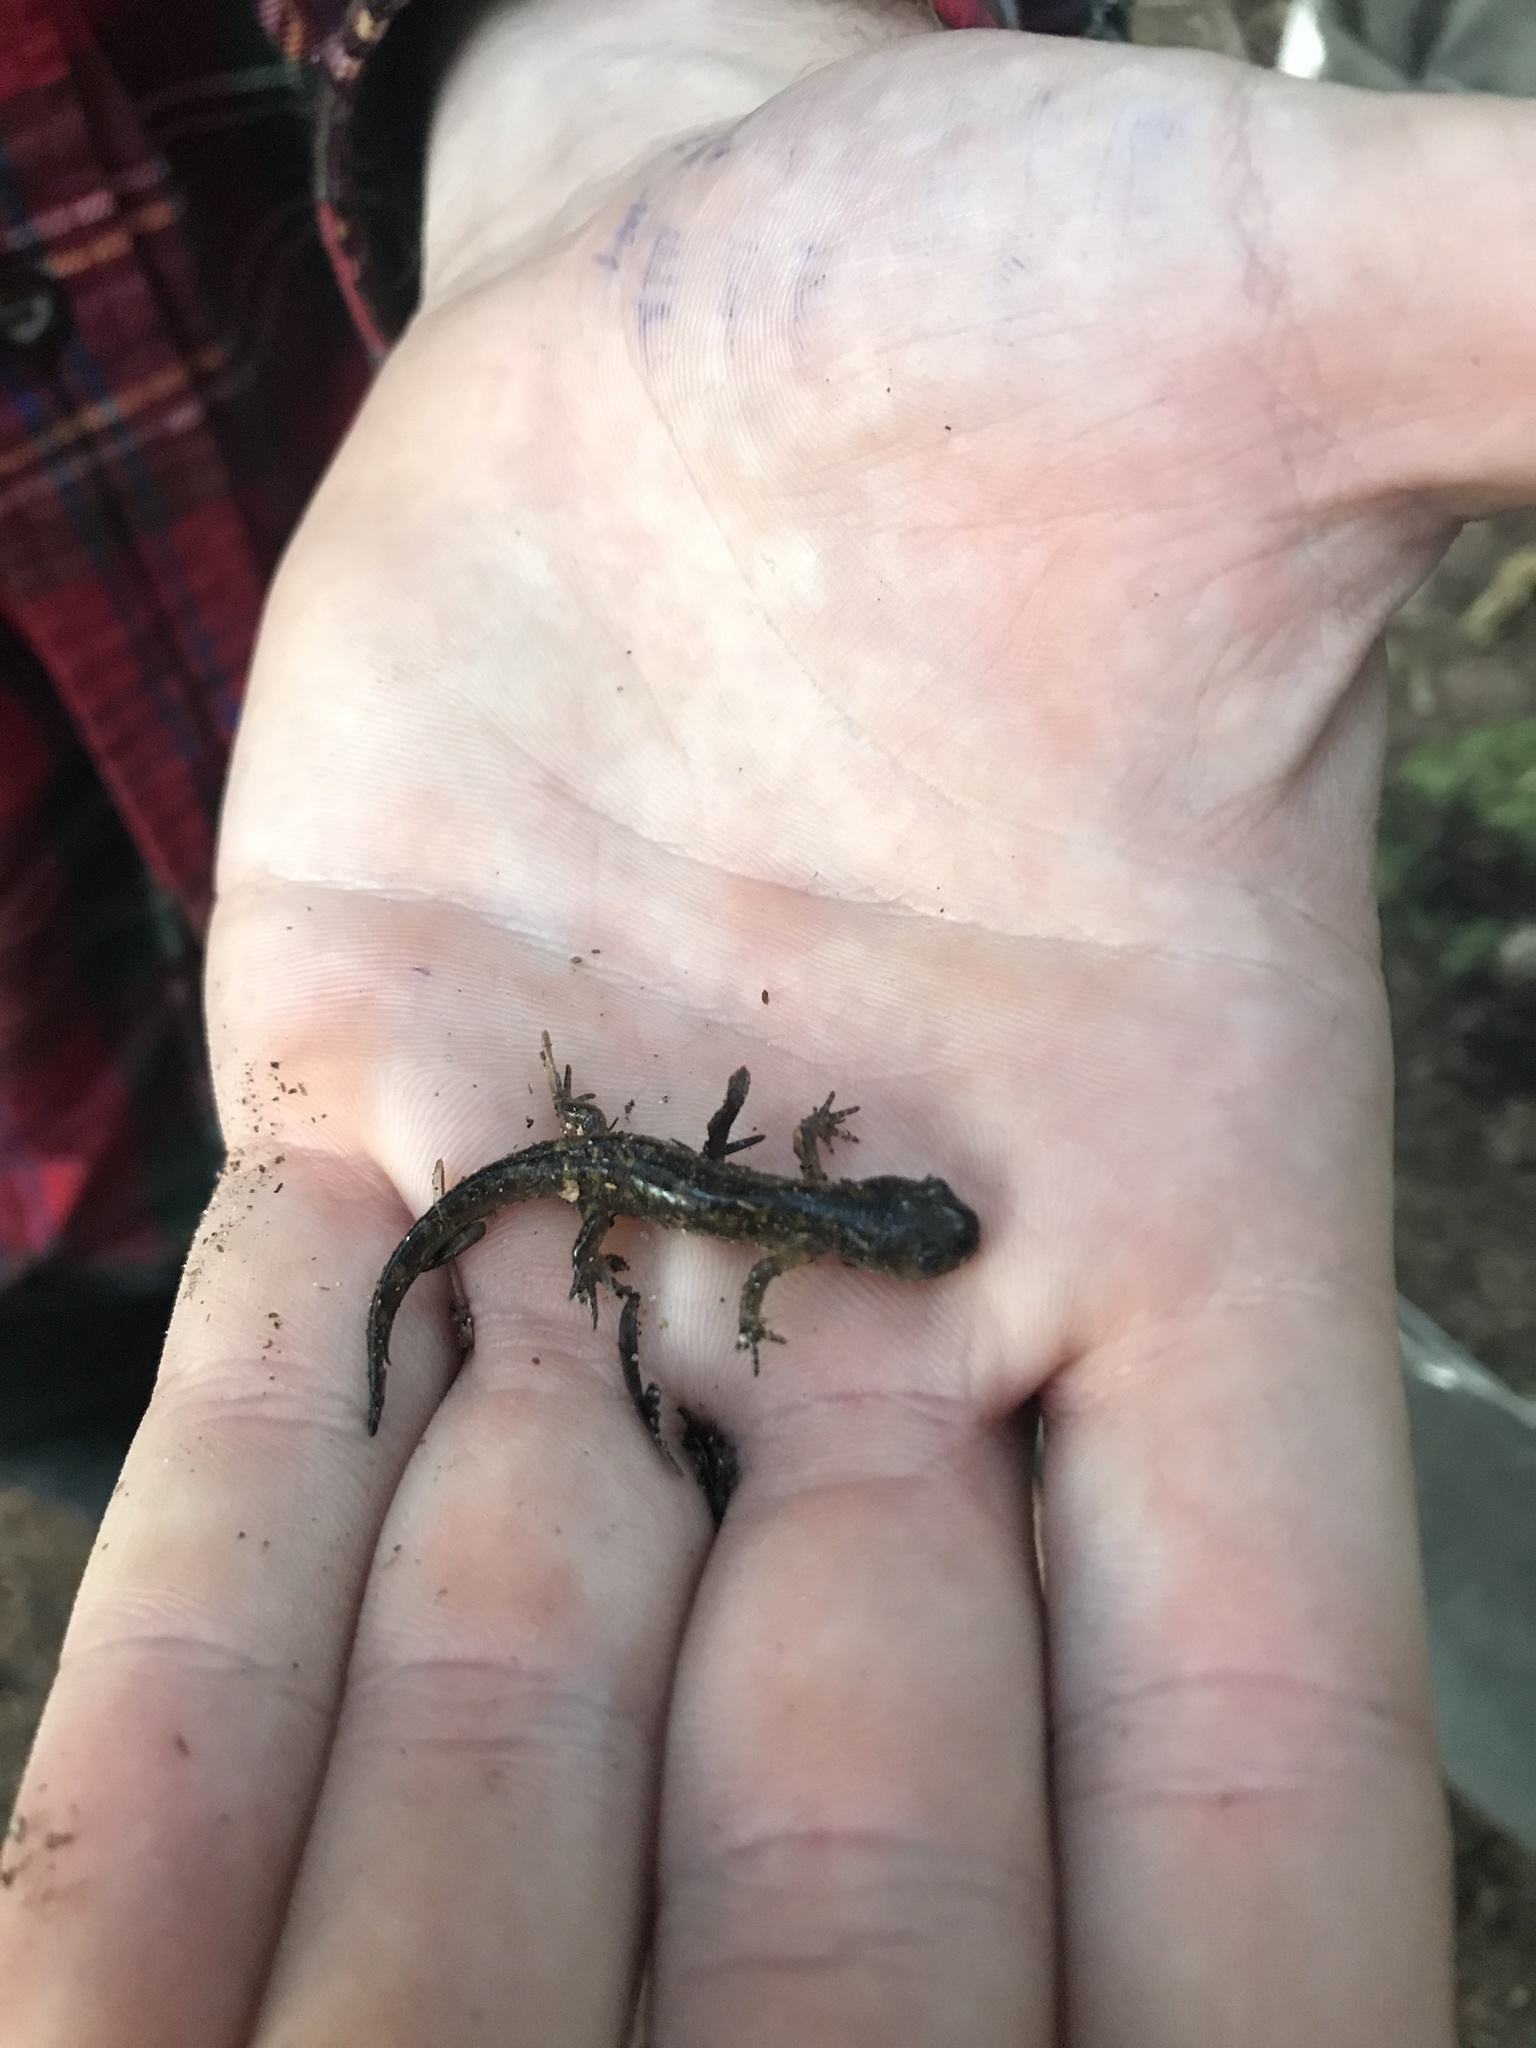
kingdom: Animalia
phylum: Chordata
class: Amphibia
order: Caudata
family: Ambystomatidae
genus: Ambystoma
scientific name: Ambystoma maculatum
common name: Spotted salamander
